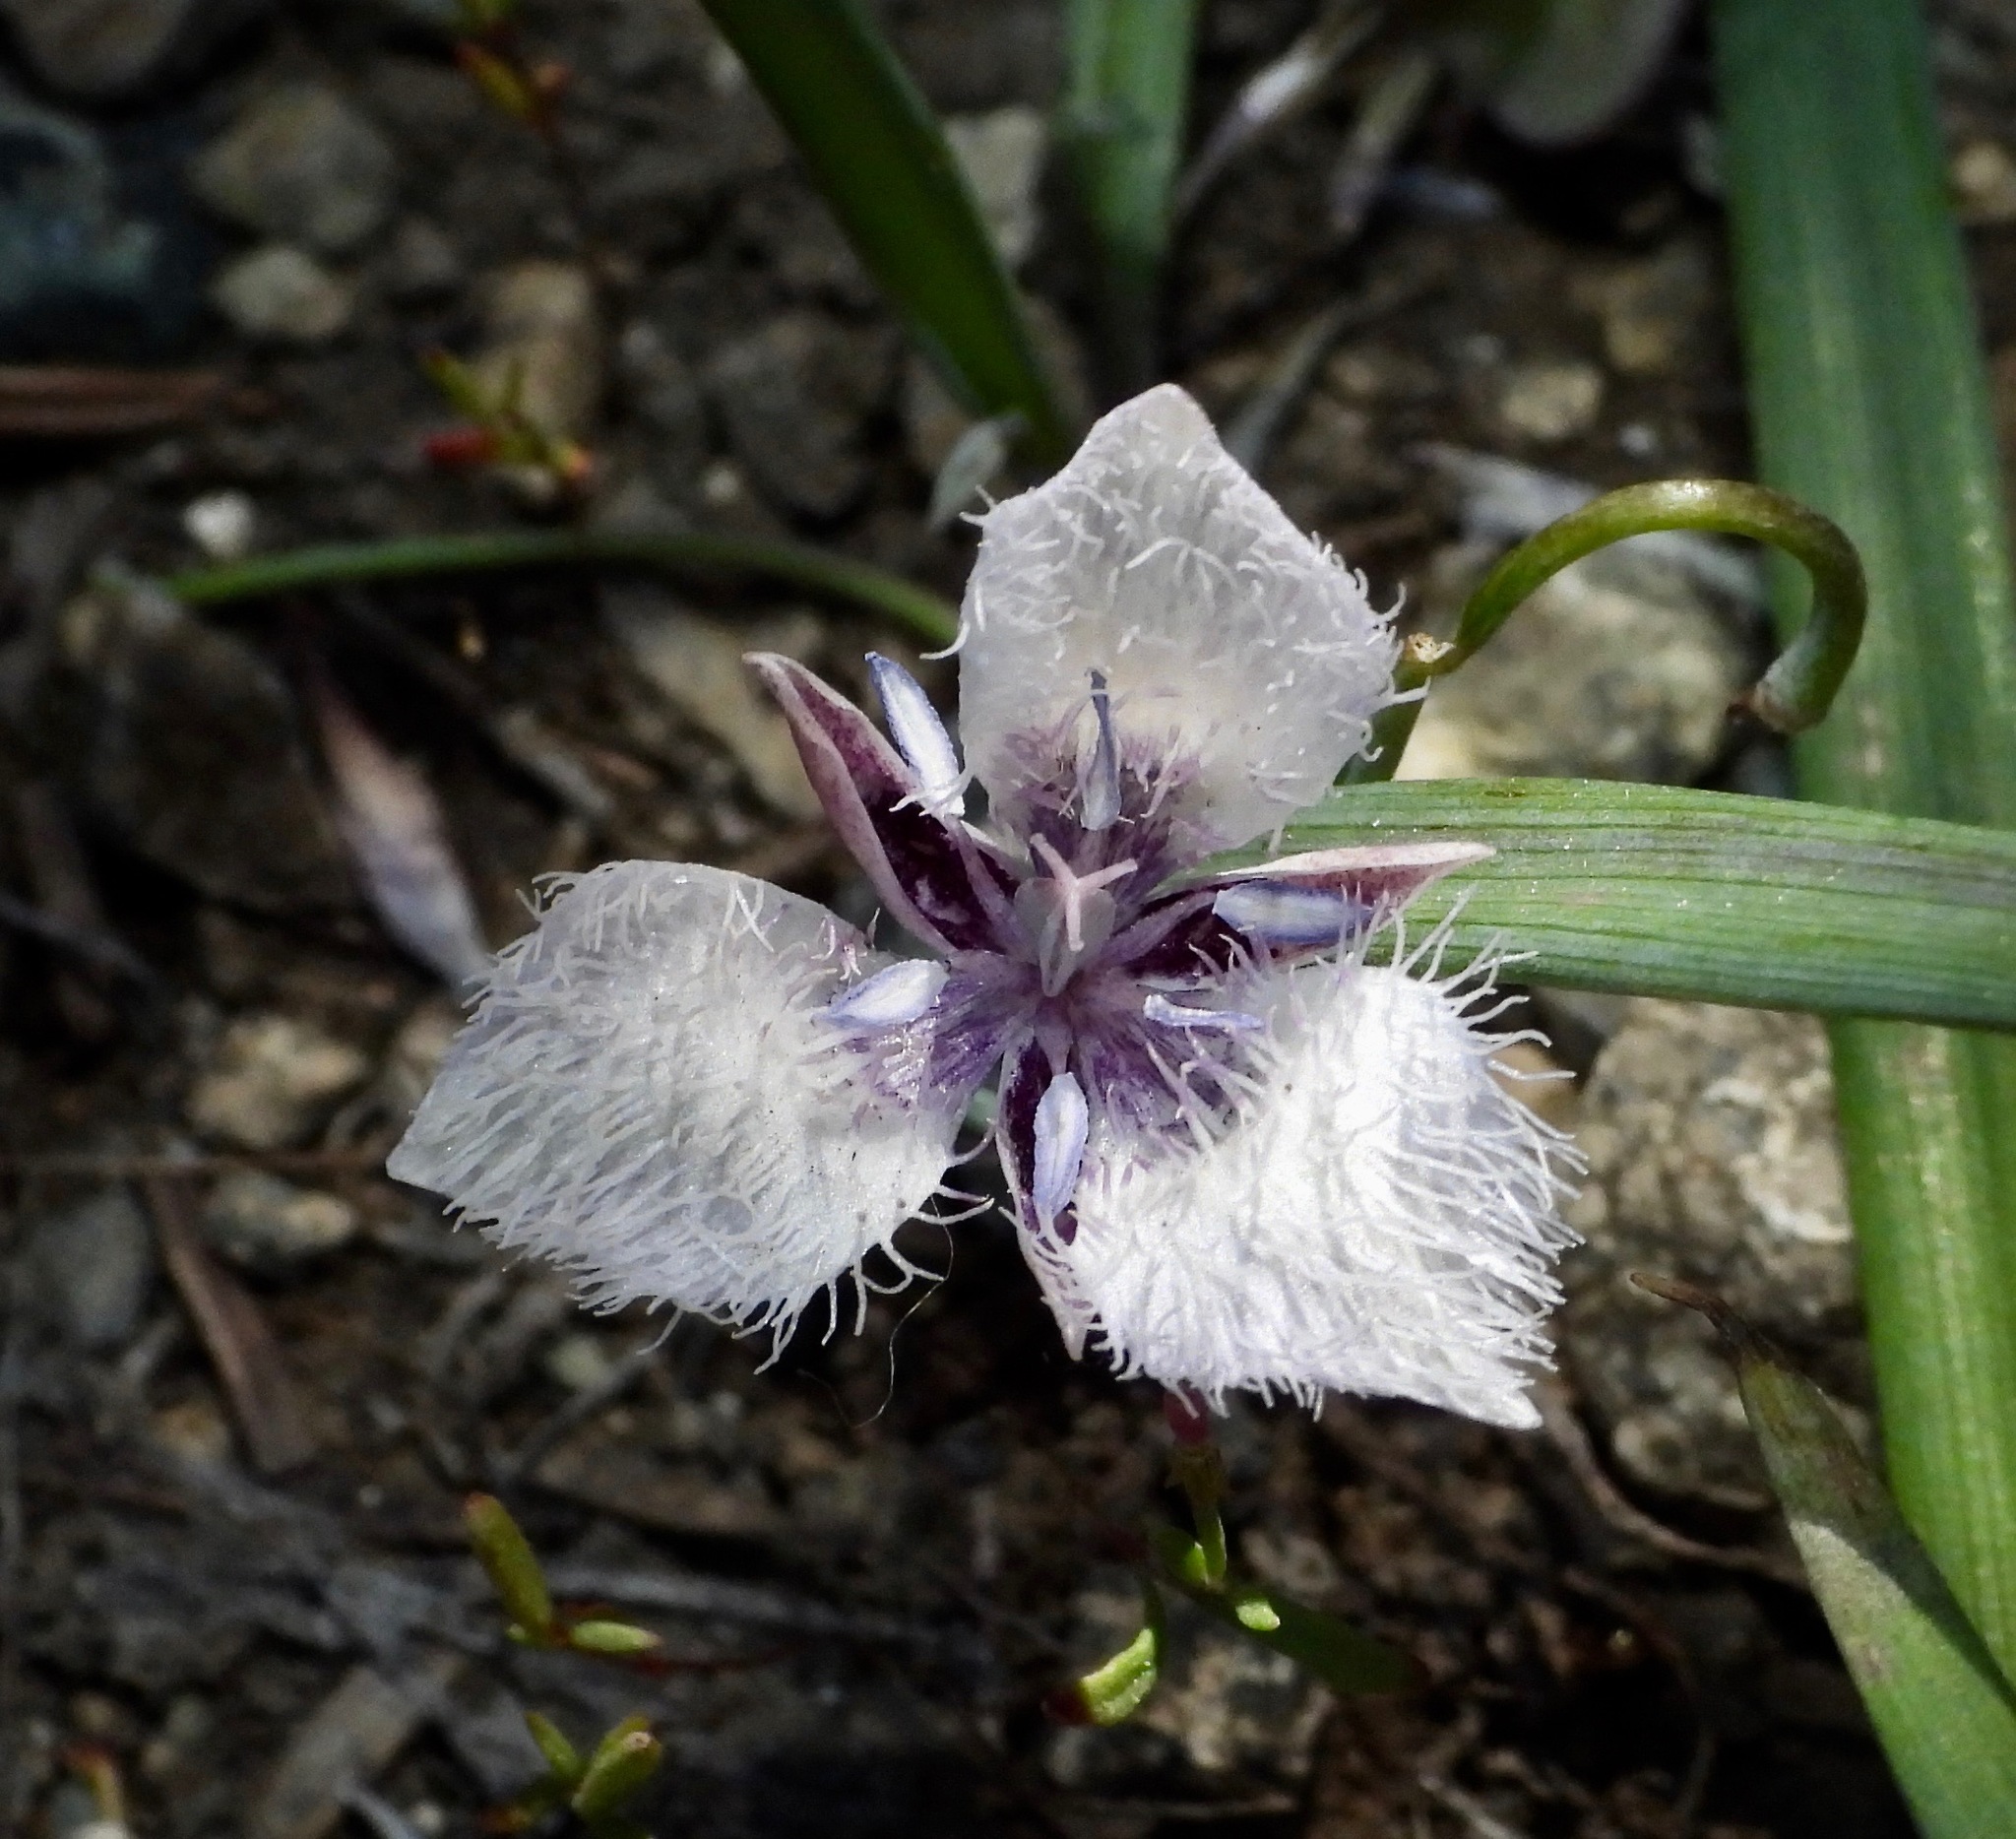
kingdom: Plantae
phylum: Tracheophyta
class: Liliopsida
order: Liliales
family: Liliaceae
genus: Calochortus
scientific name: Calochortus coeruleus
